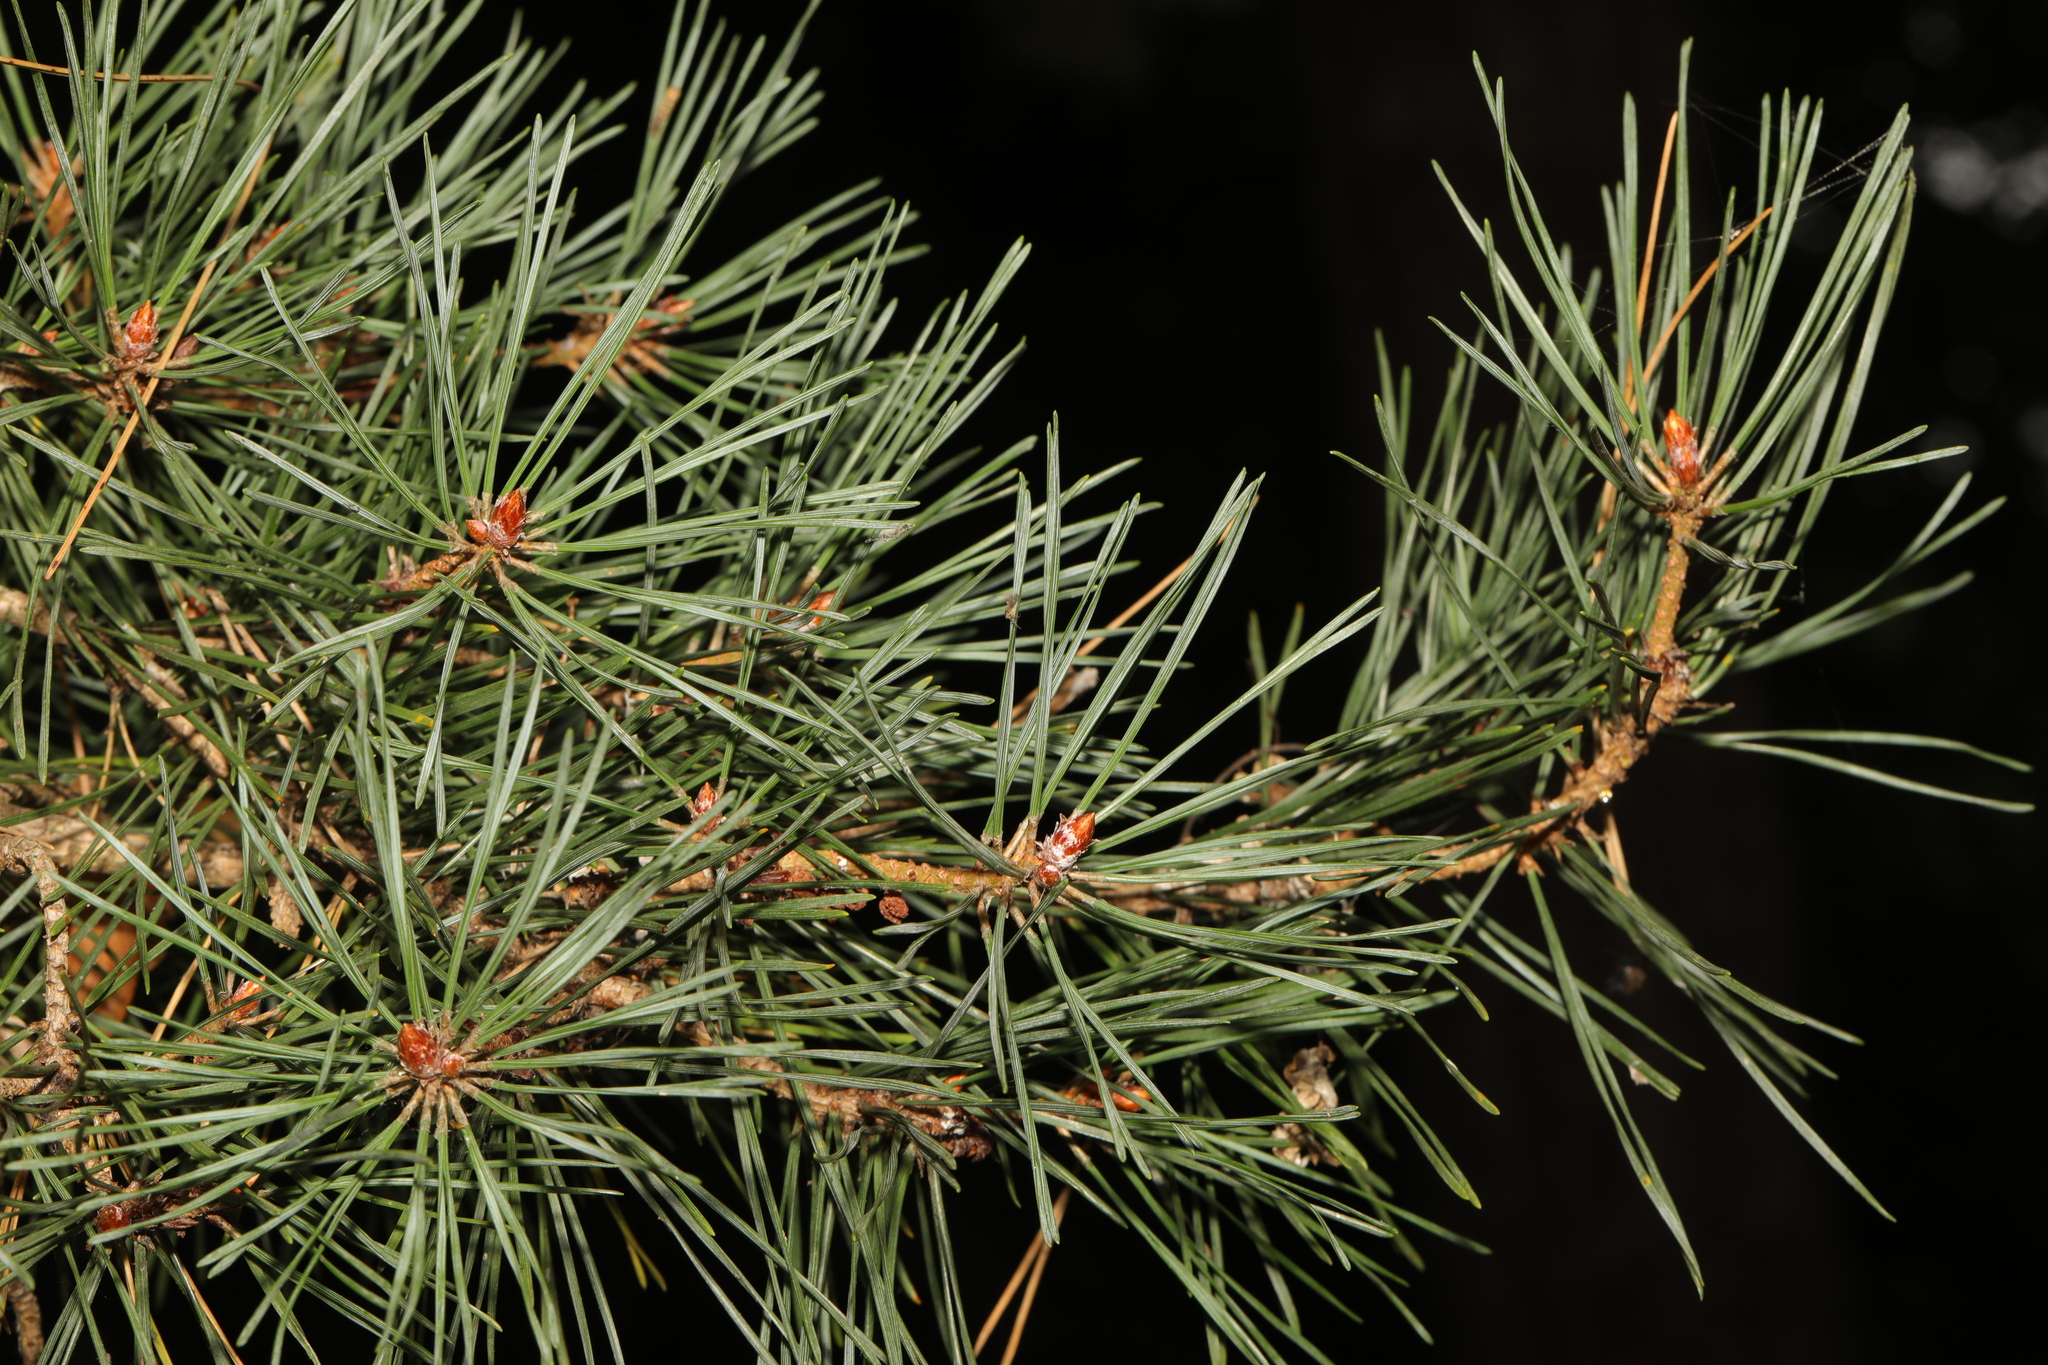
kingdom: Plantae
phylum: Tracheophyta
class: Pinopsida
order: Pinales
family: Pinaceae
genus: Pinus
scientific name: Pinus sylvestris
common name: Scots pine
